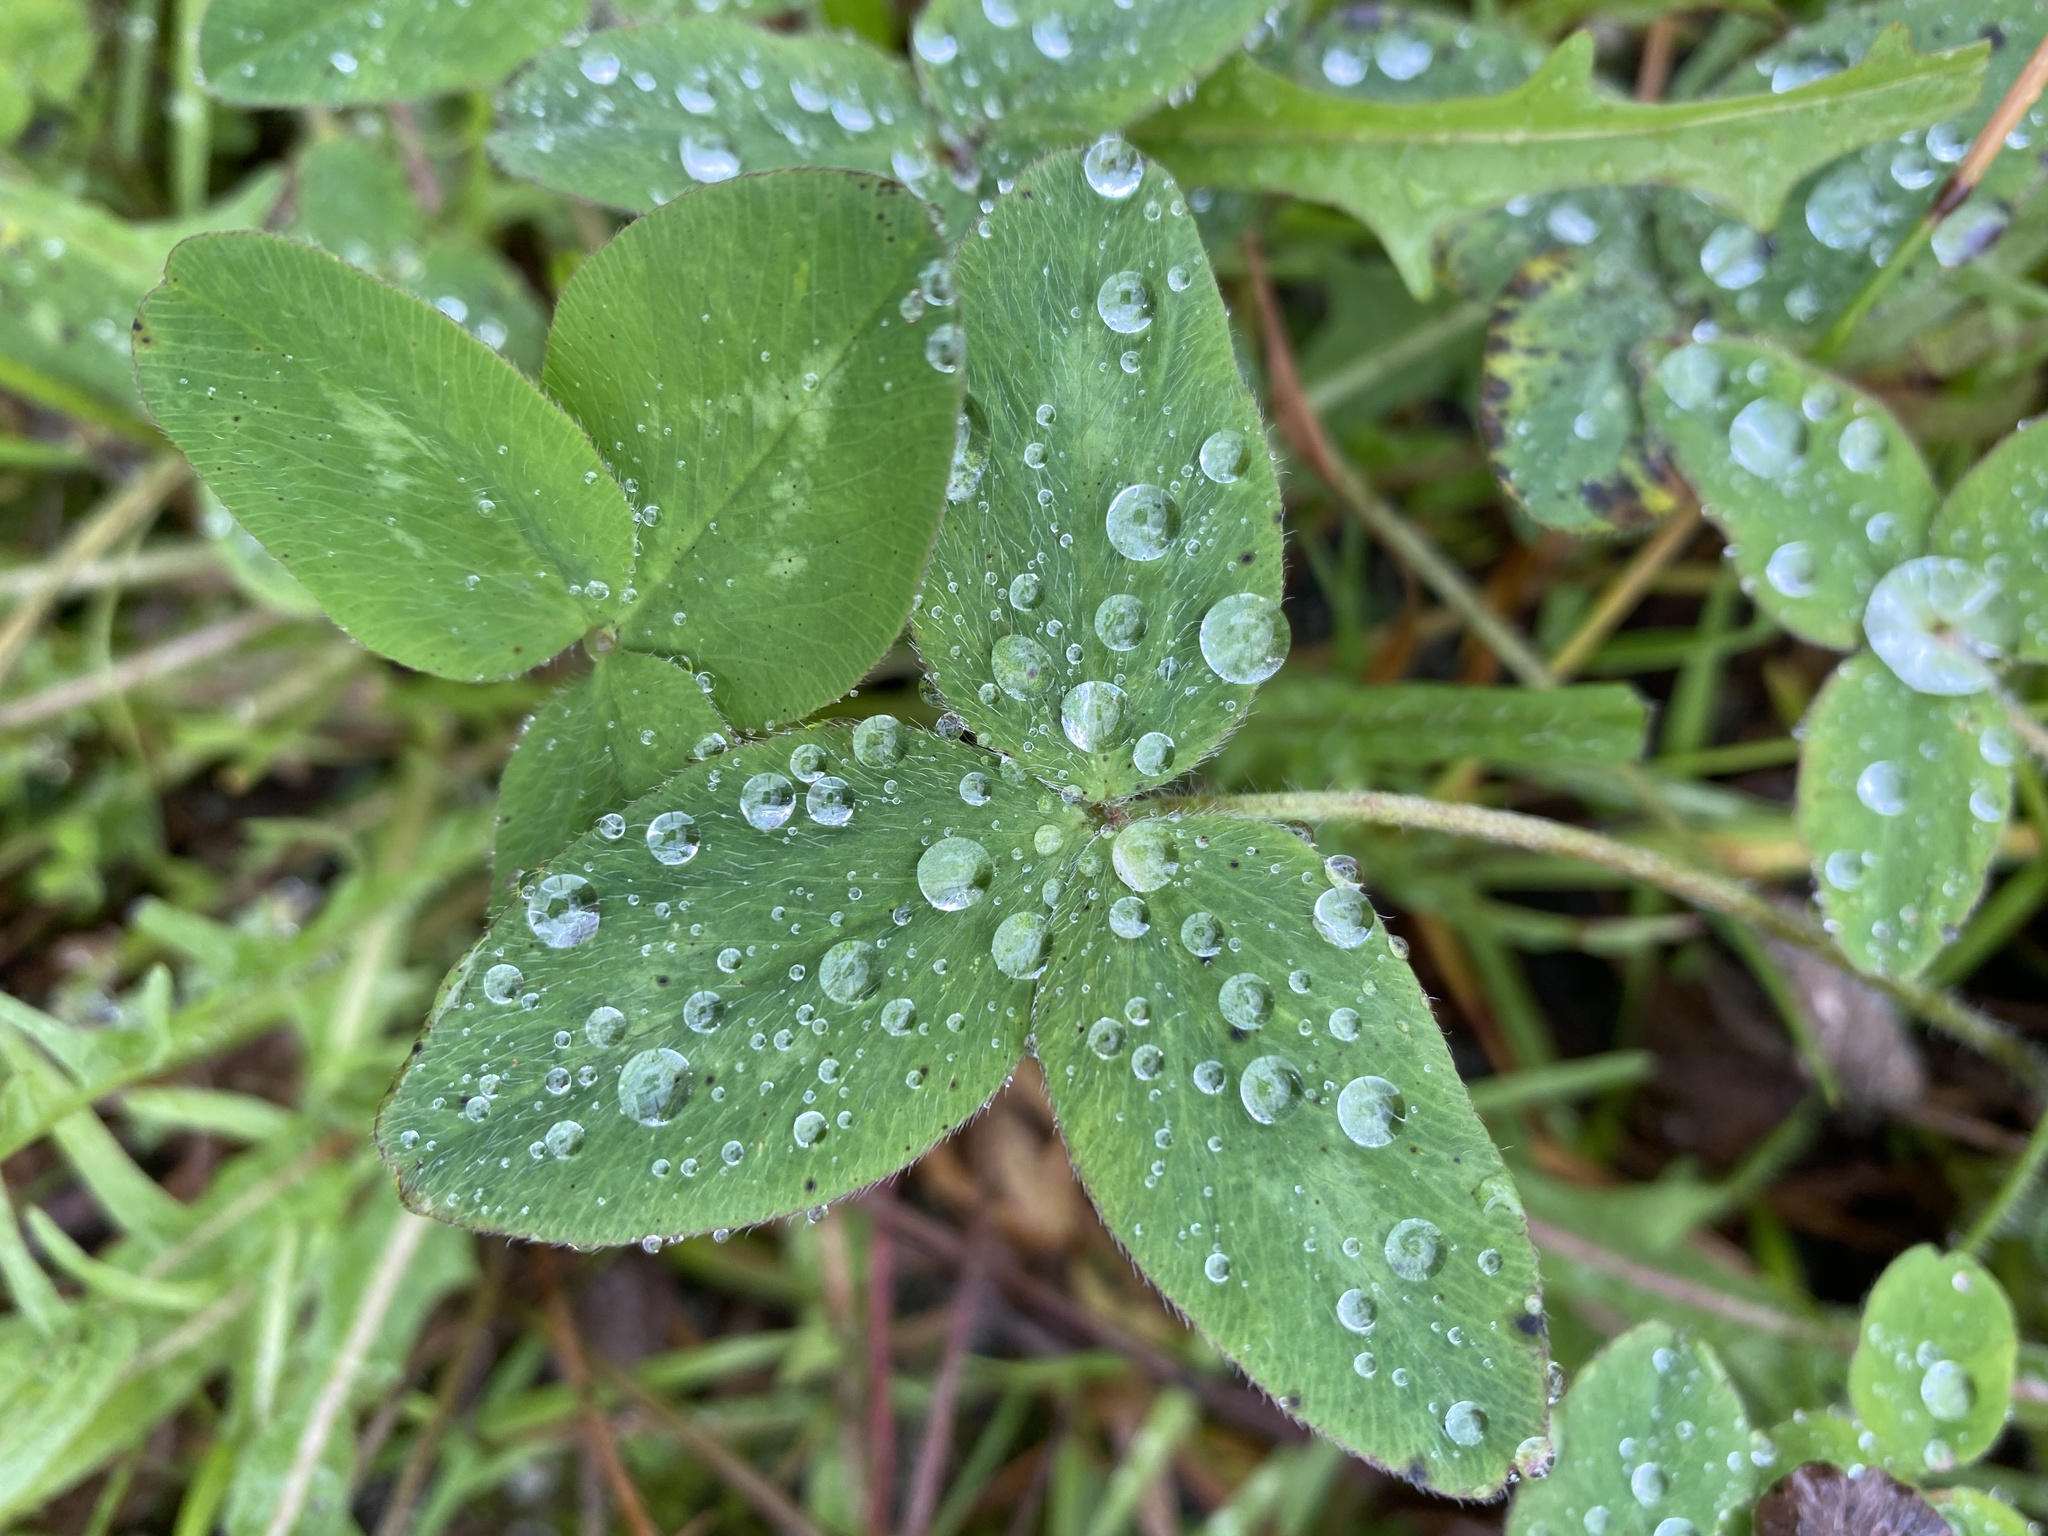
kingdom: Plantae
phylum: Tracheophyta
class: Magnoliopsida
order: Fabales
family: Fabaceae
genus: Trifolium
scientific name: Trifolium pratense
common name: Red clover
